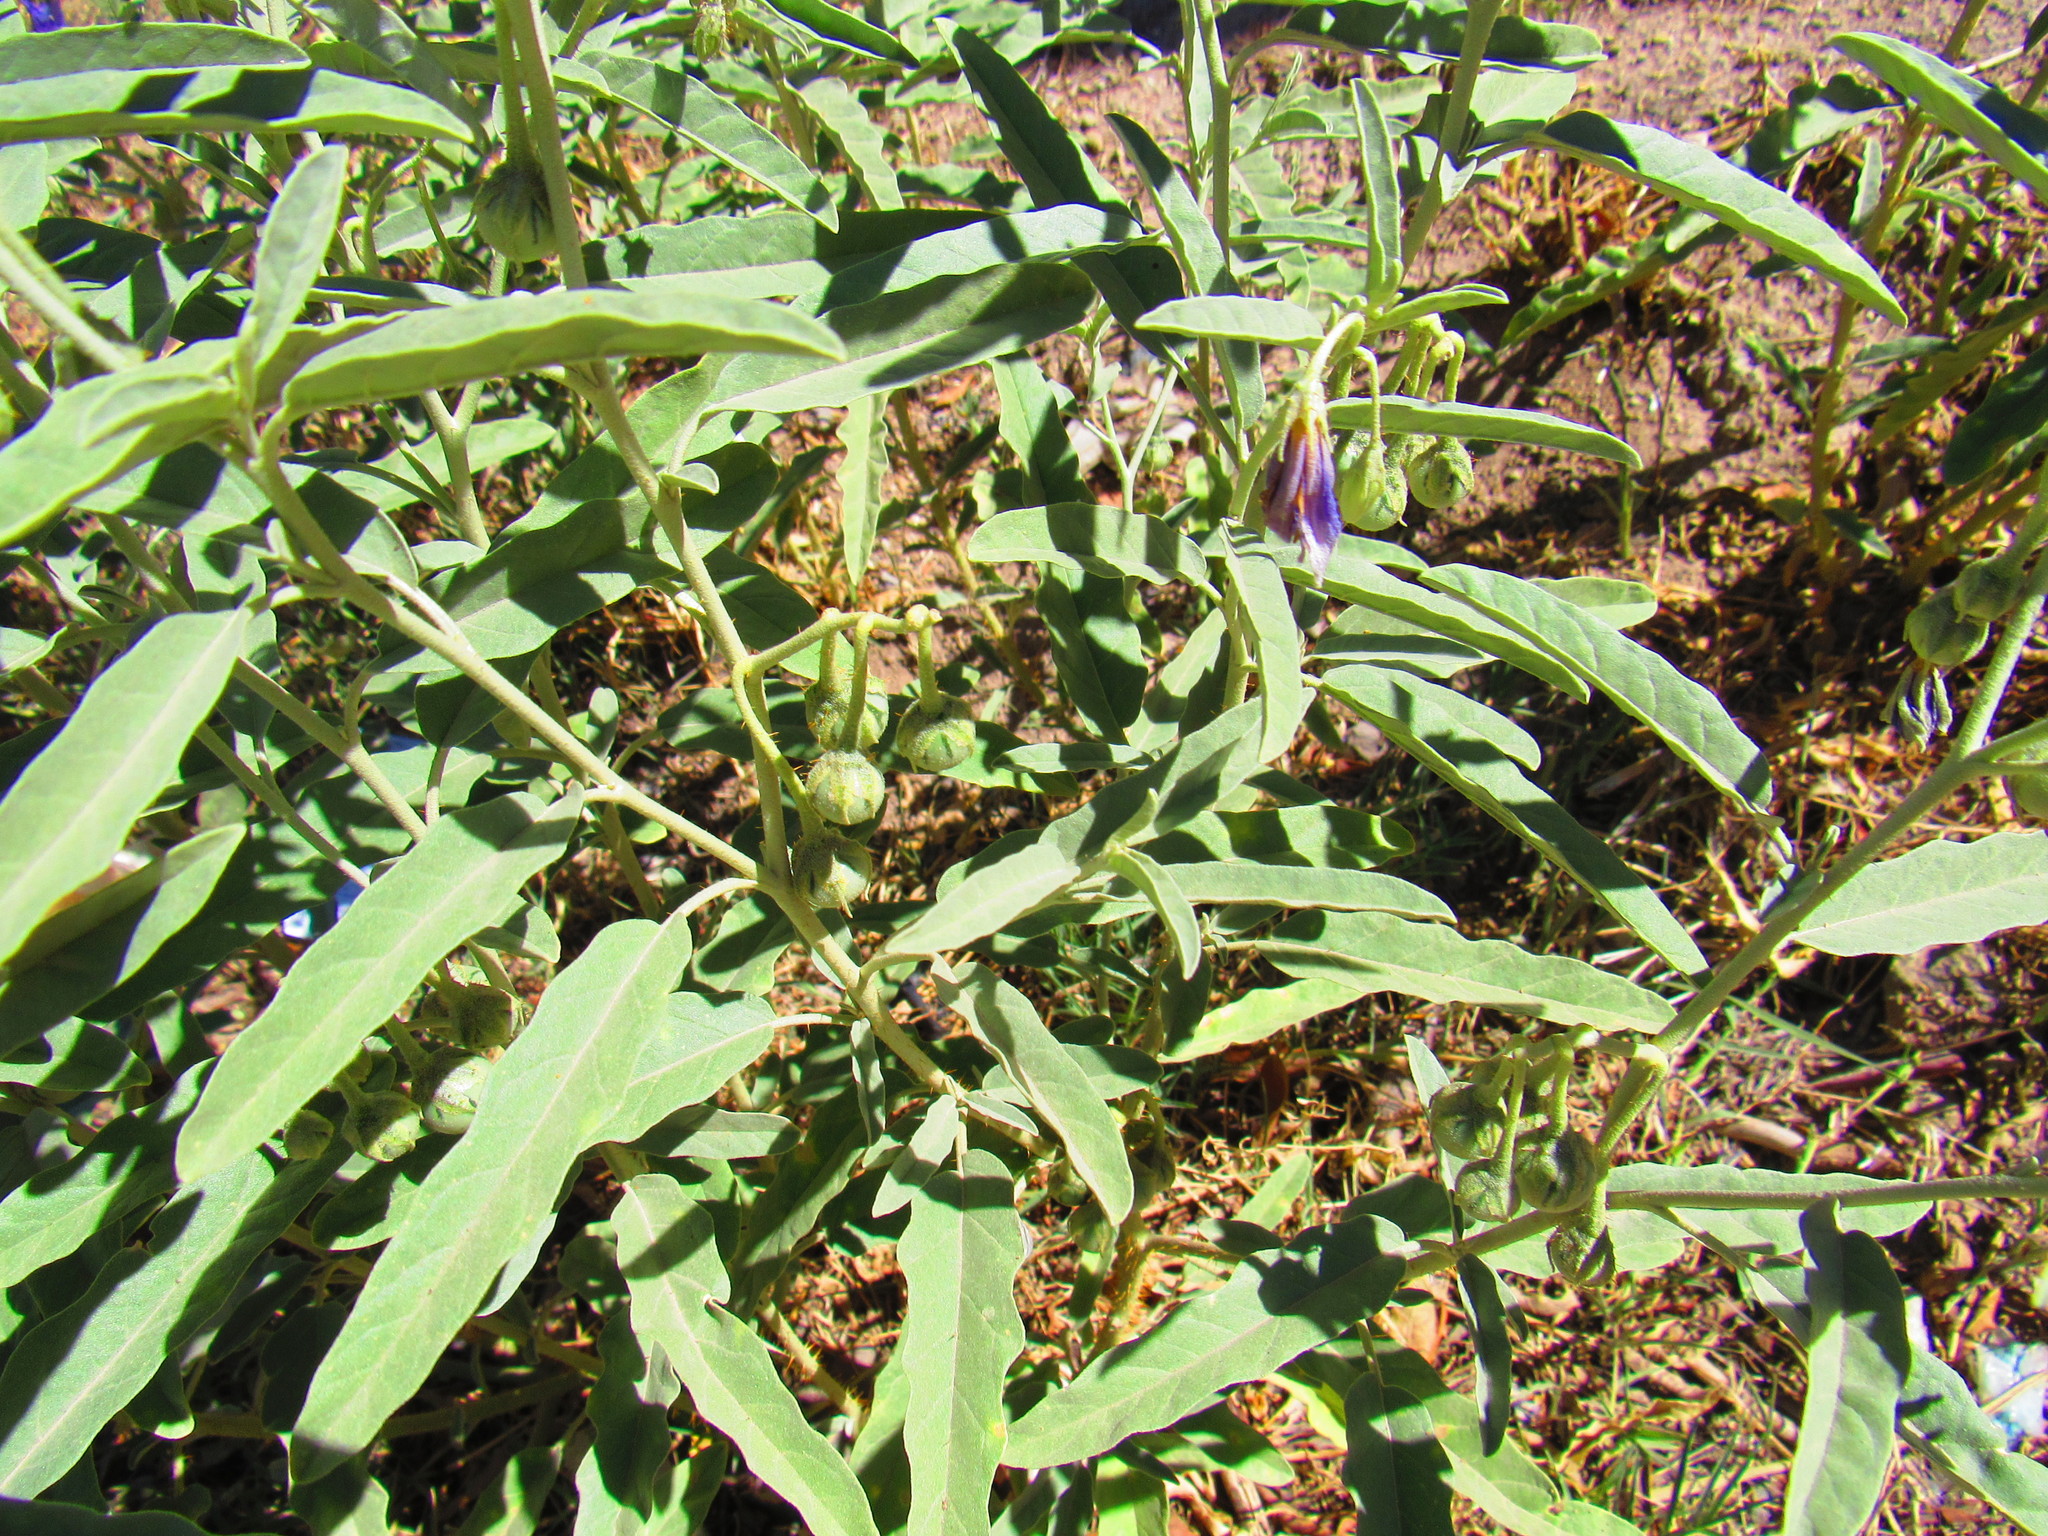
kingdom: Plantae
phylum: Tracheophyta
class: Magnoliopsida
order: Solanales
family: Solanaceae
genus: Solanum
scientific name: Solanum elaeagnifolium
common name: Silverleaf nightshade
